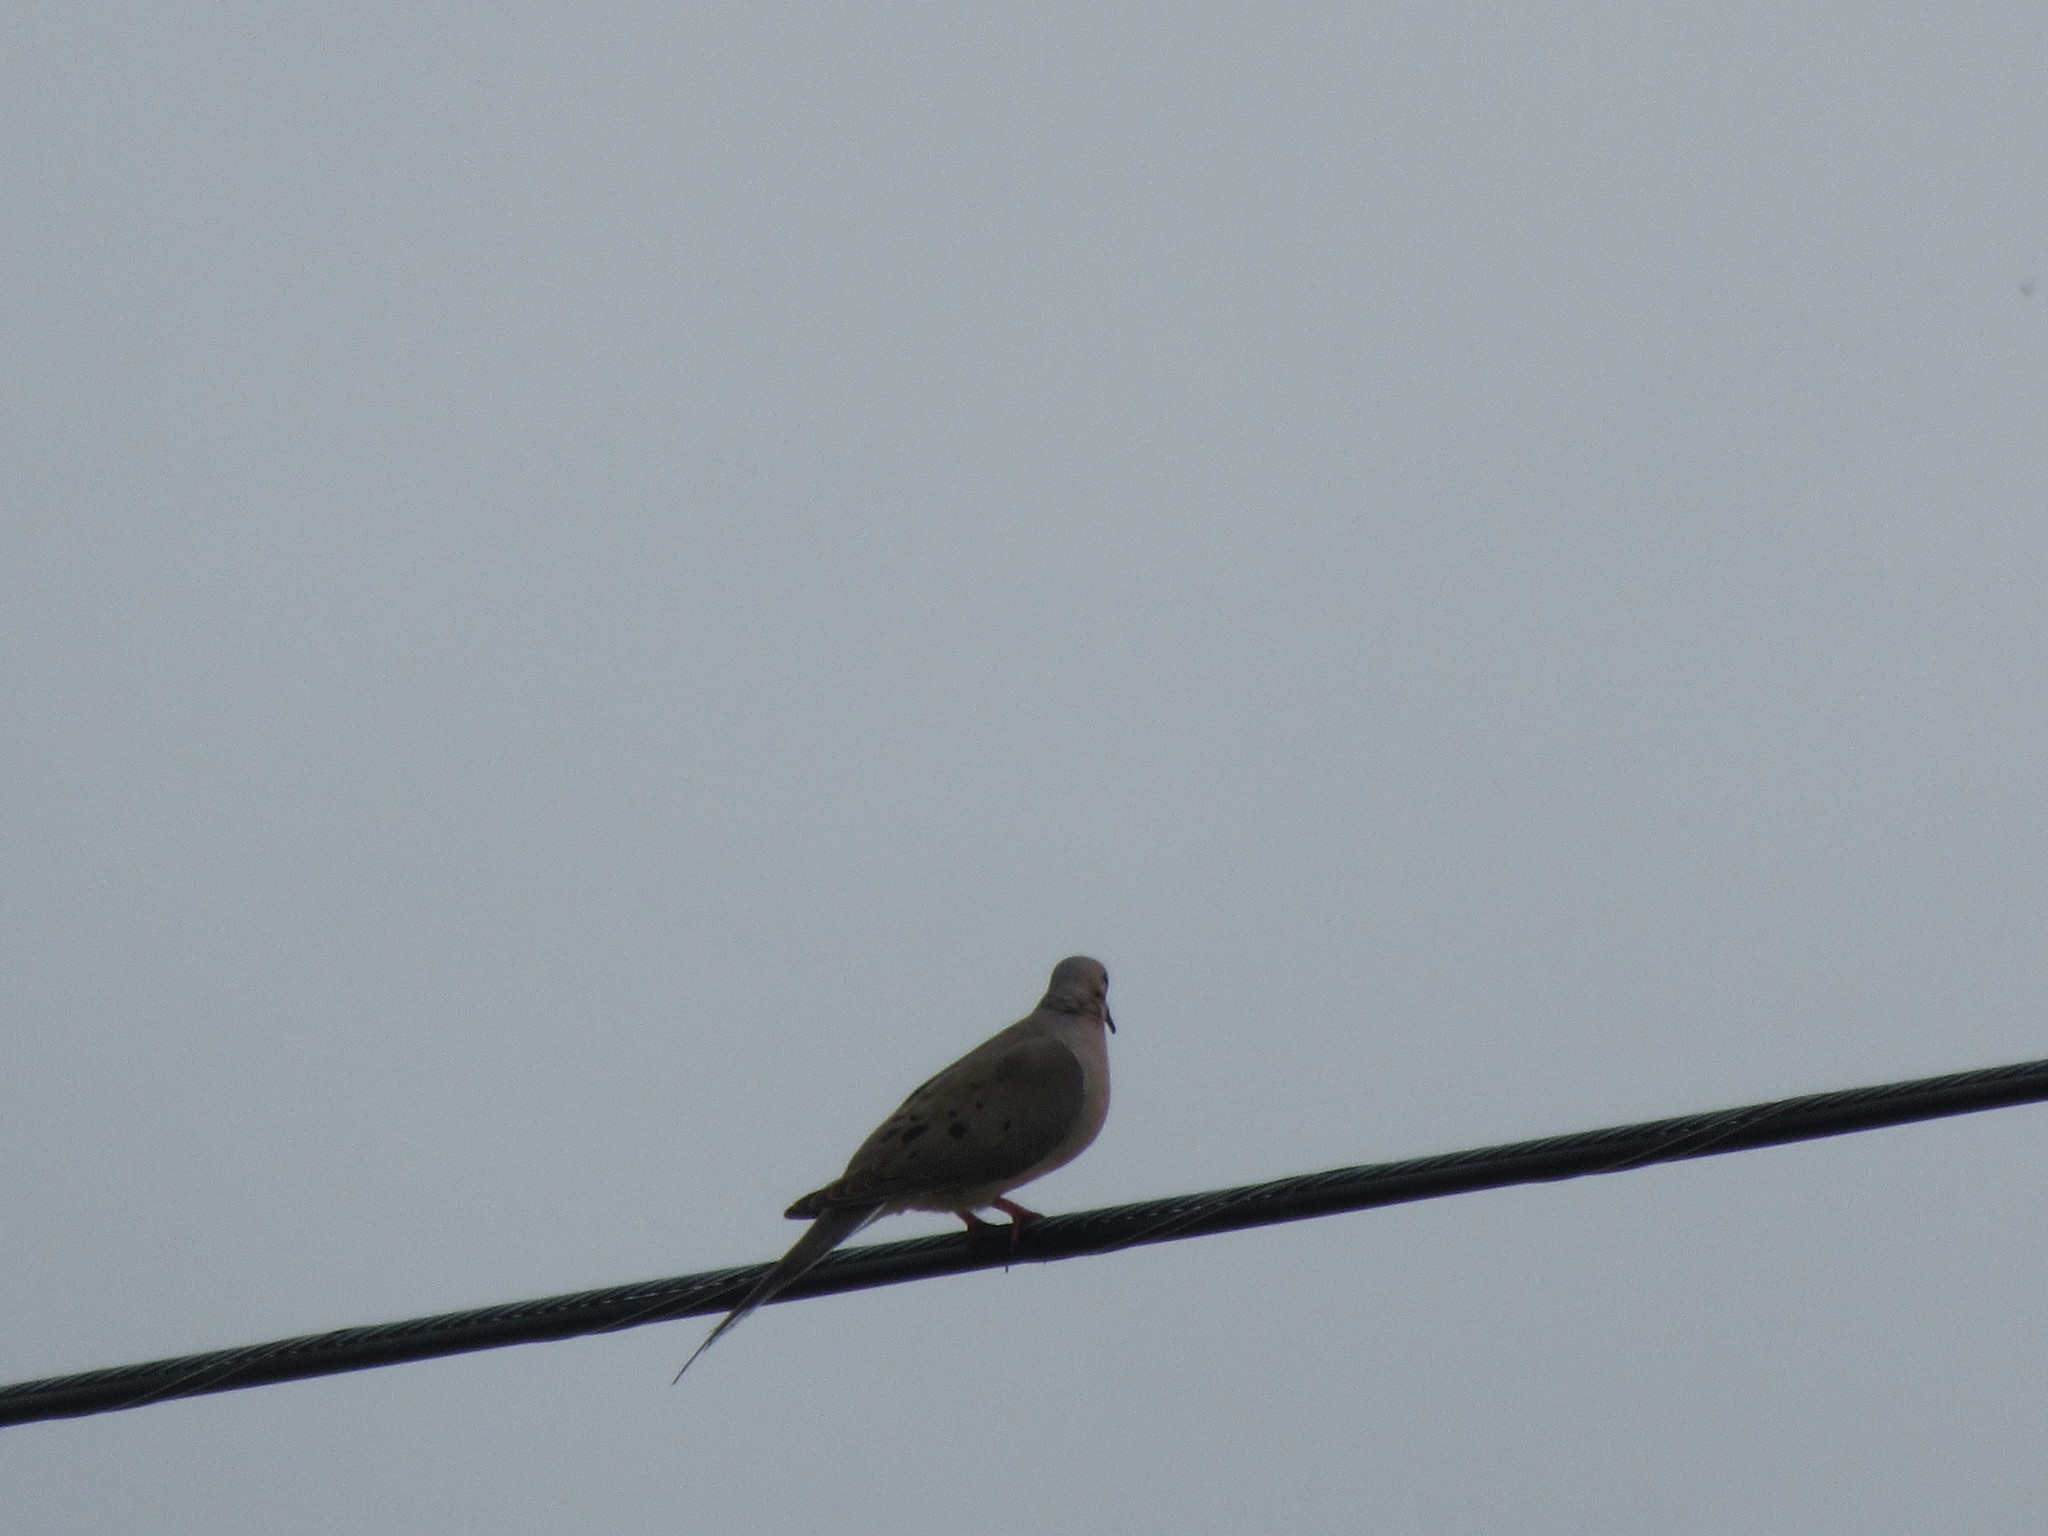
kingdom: Animalia
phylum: Chordata
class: Aves
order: Columbiformes
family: Columbidae
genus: Zenaida
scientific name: Zenaida macroura
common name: Mourning dove
